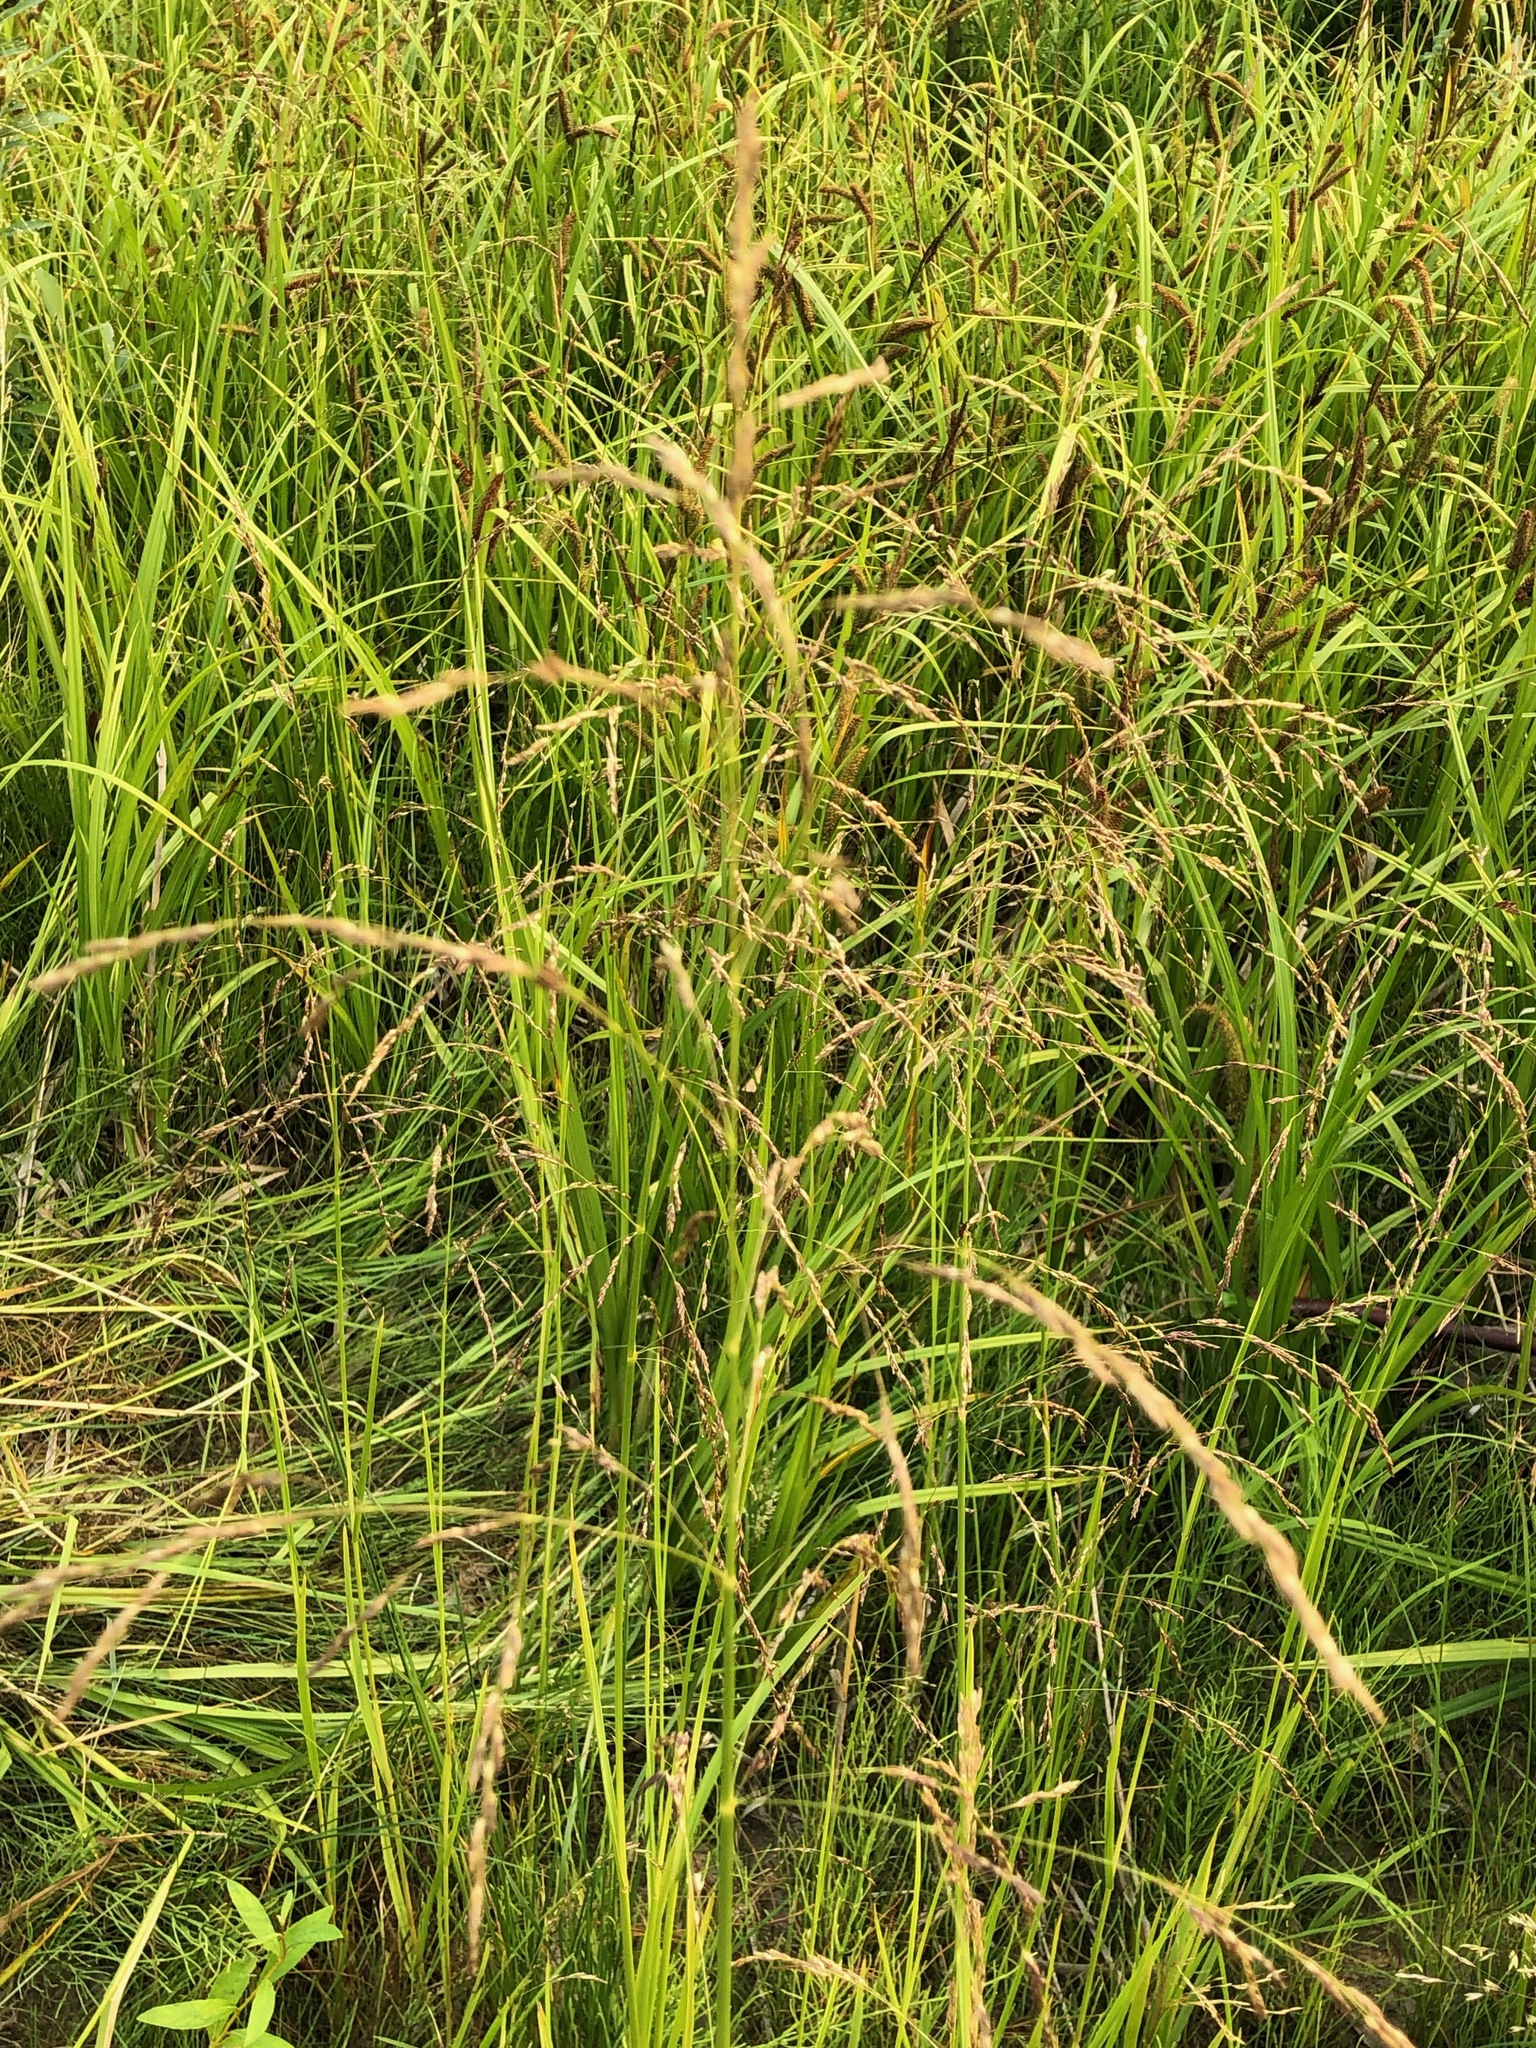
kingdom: Plantae
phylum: Tracheophyta
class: Liliopsida
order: Poales
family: Poaceae
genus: Glyceria
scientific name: Glyceria pulchella
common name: Mackenzie valley mannagrass
